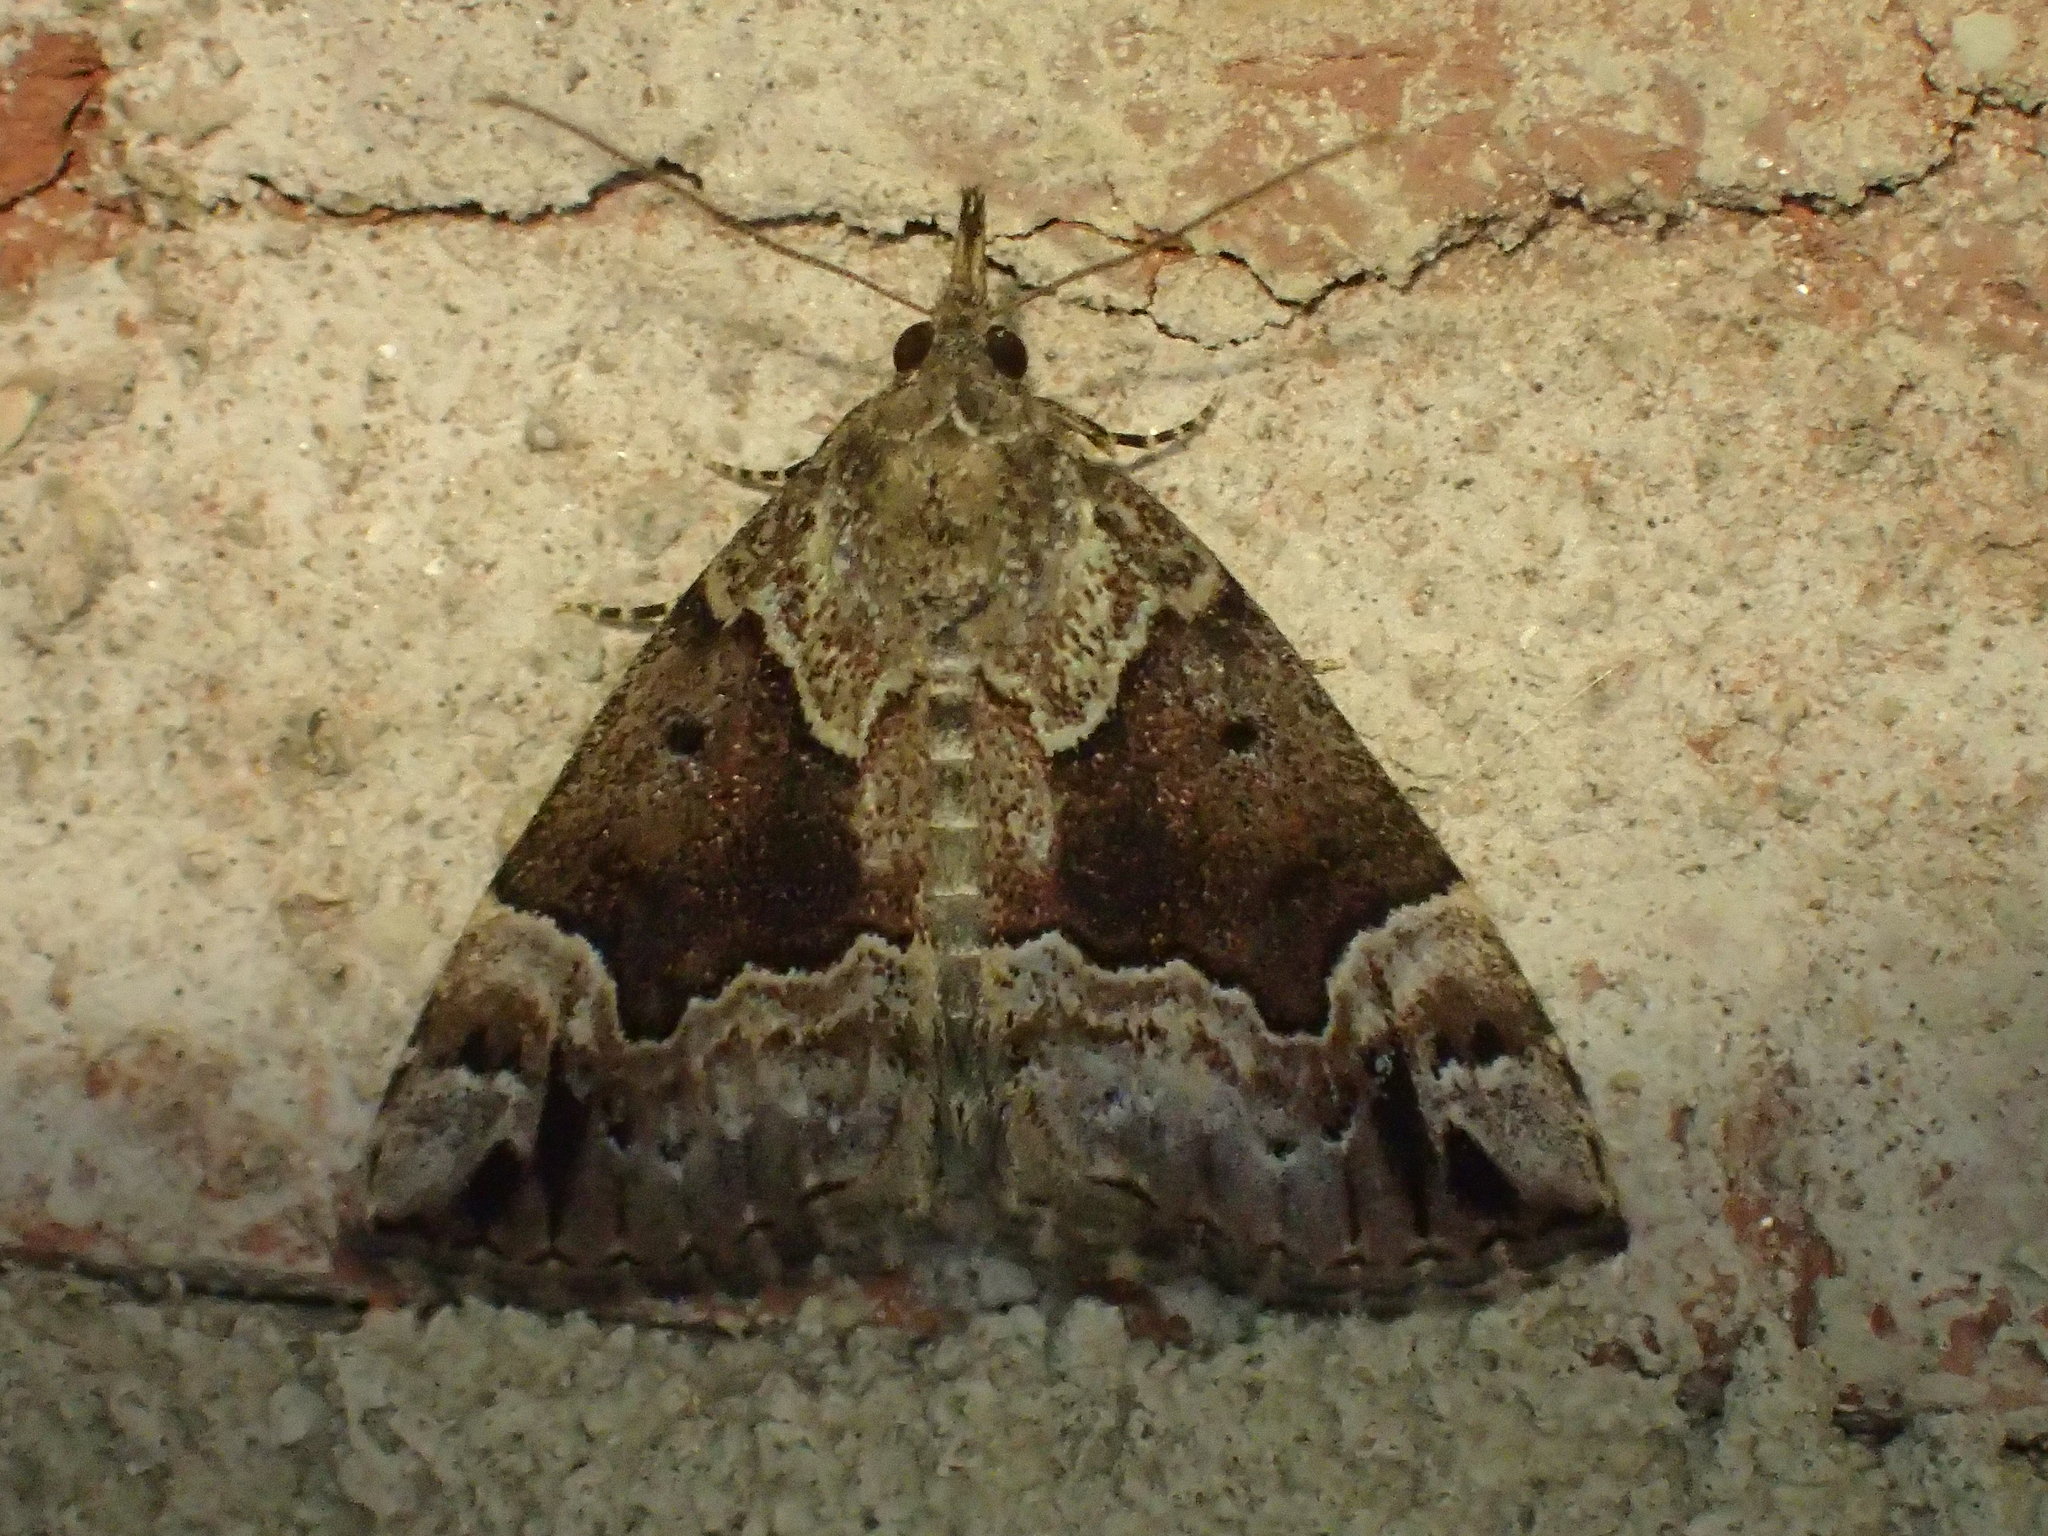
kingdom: Animalia
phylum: Arthropoda
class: Insecta
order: Lepidoptera
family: Erebidae
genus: Hypena
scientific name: Hypena palparia
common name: Mottled bomolocha moth
